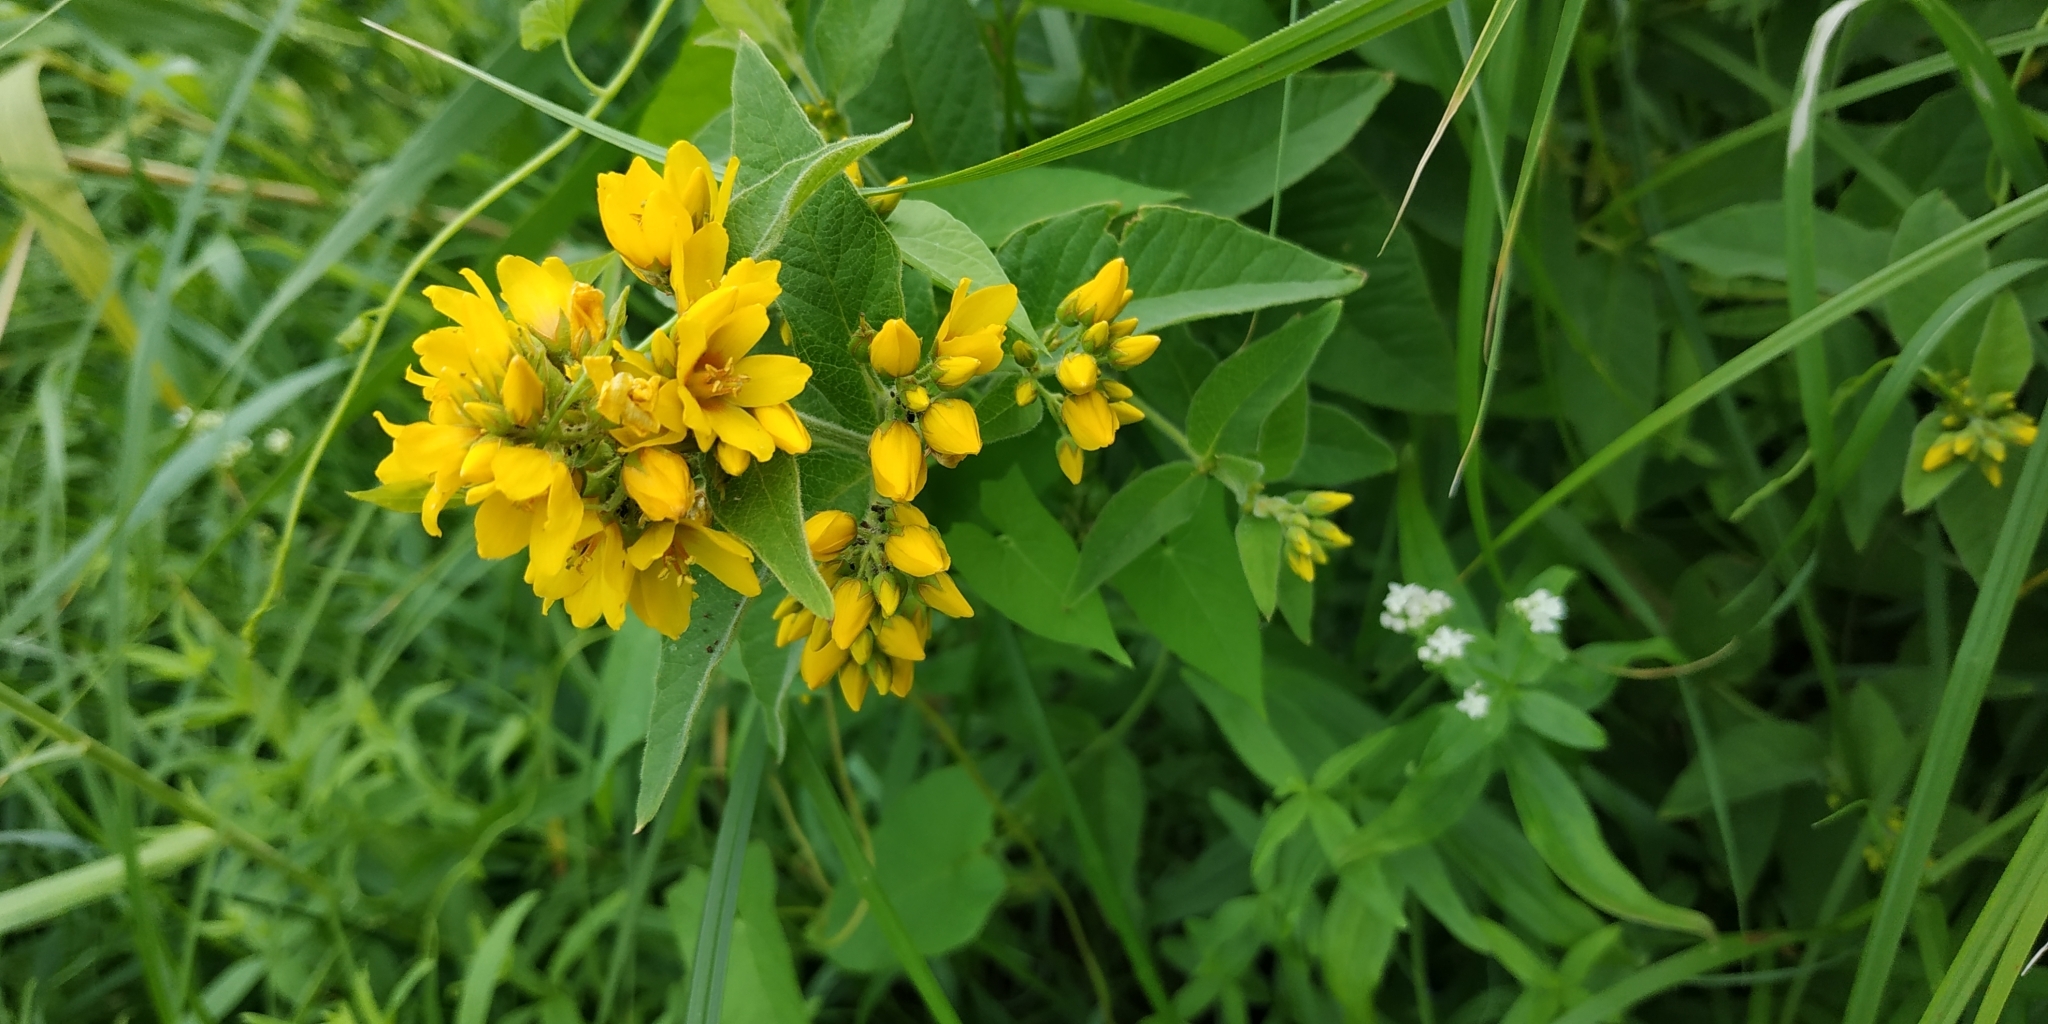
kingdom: Plantae
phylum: Tracheophyta
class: Magnoliopsida
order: Ericales
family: Primulaceae
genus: Lysimachia
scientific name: Lysimachia vulgaris
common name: Yellow loosestrife
